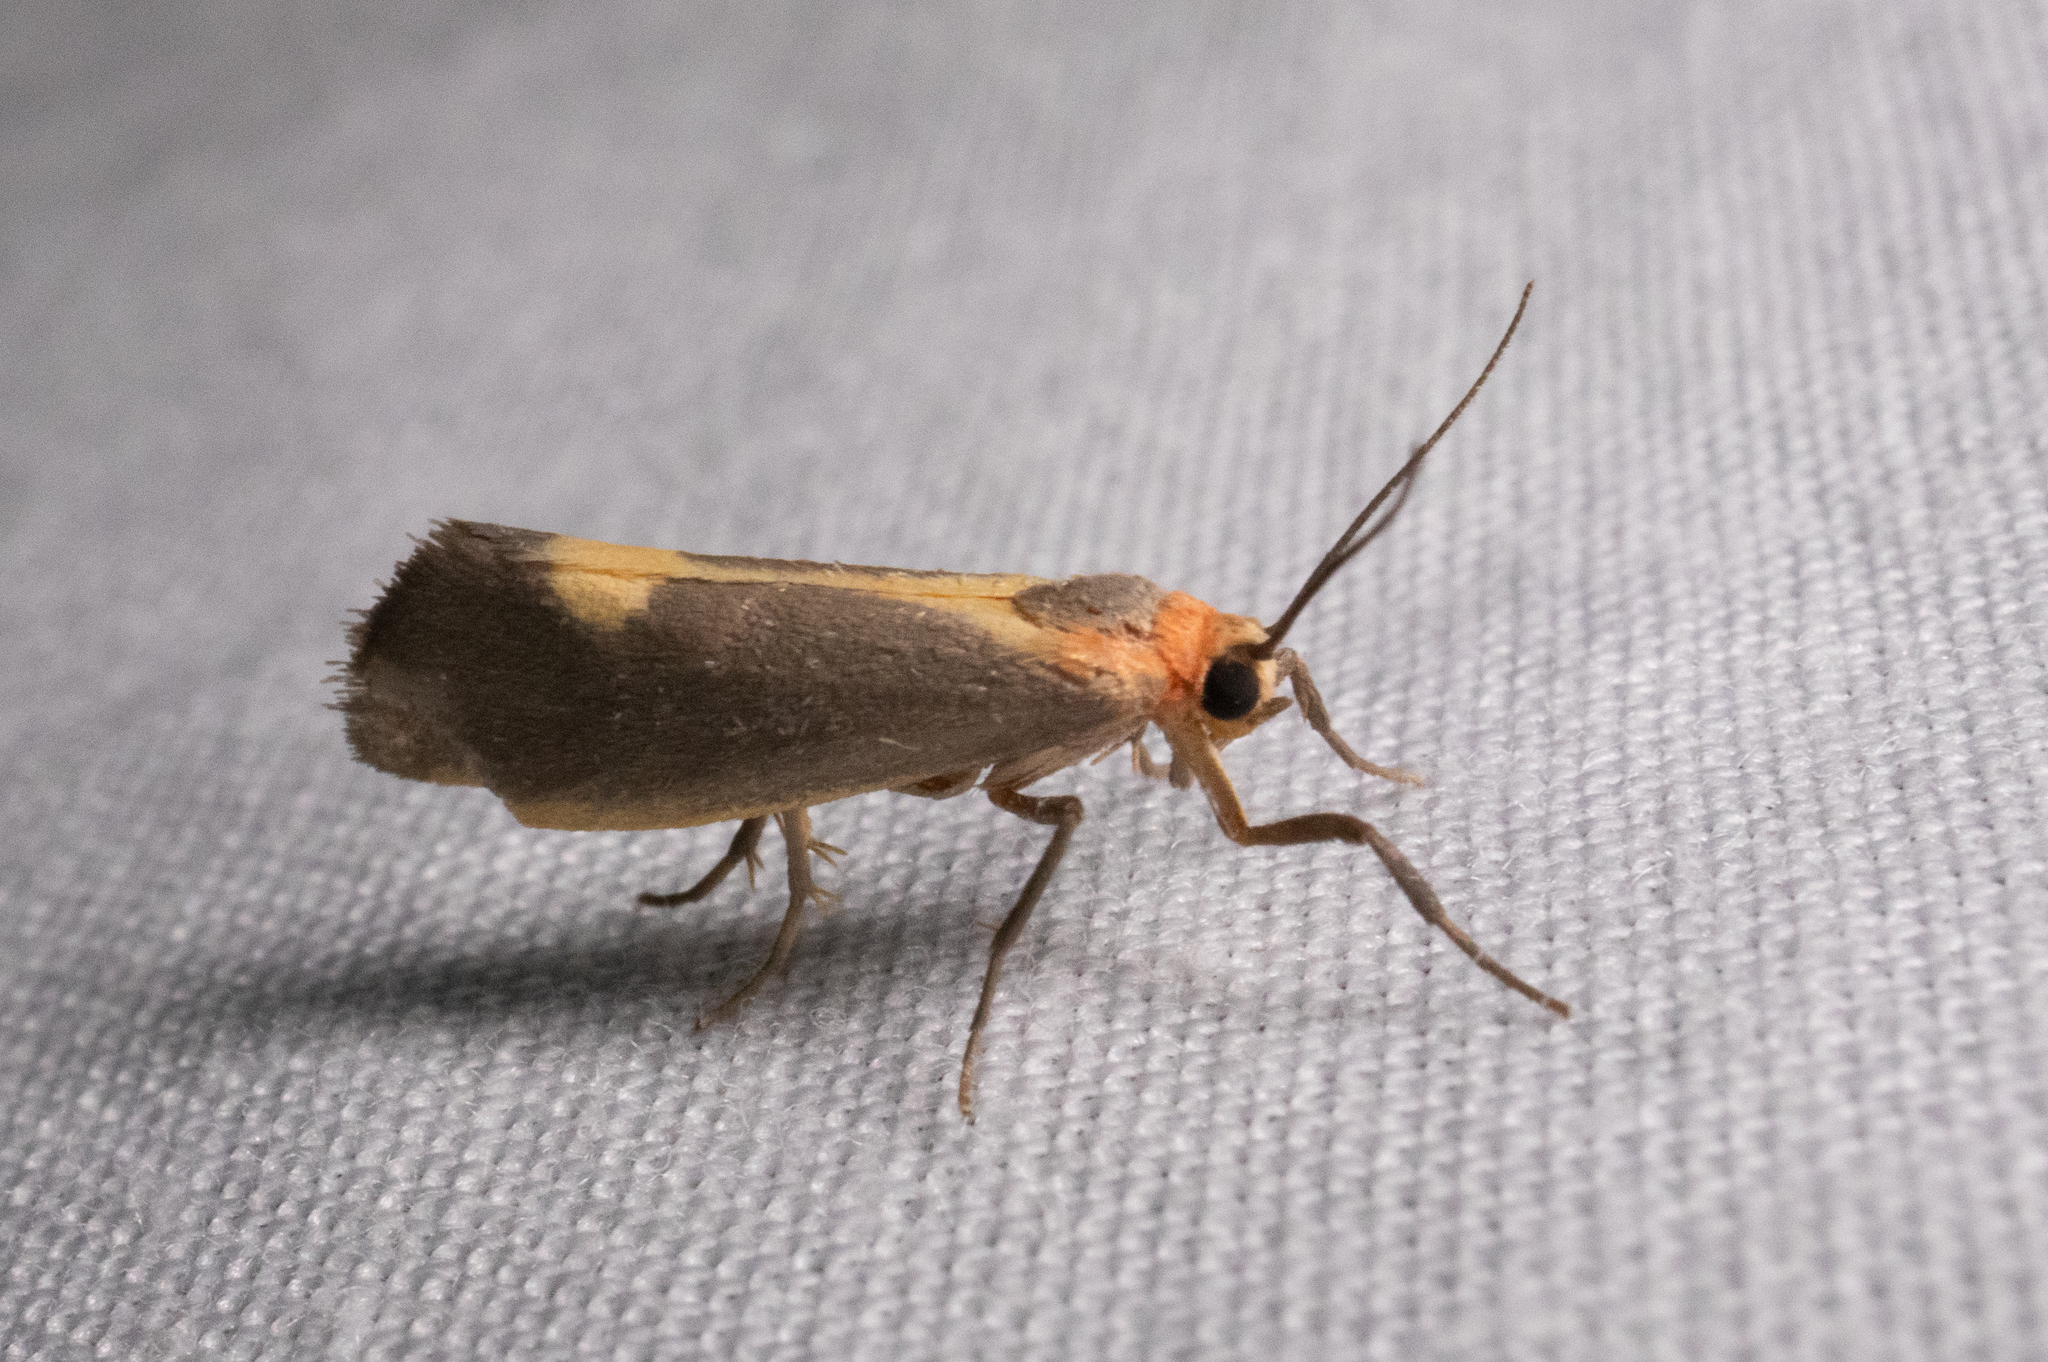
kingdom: Animalia
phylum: Arthropoda
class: Insecta
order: Lepidoptera
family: Erebidae
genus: Cisthene
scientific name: Cisthene plumbea
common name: Lead colored lichen moth
